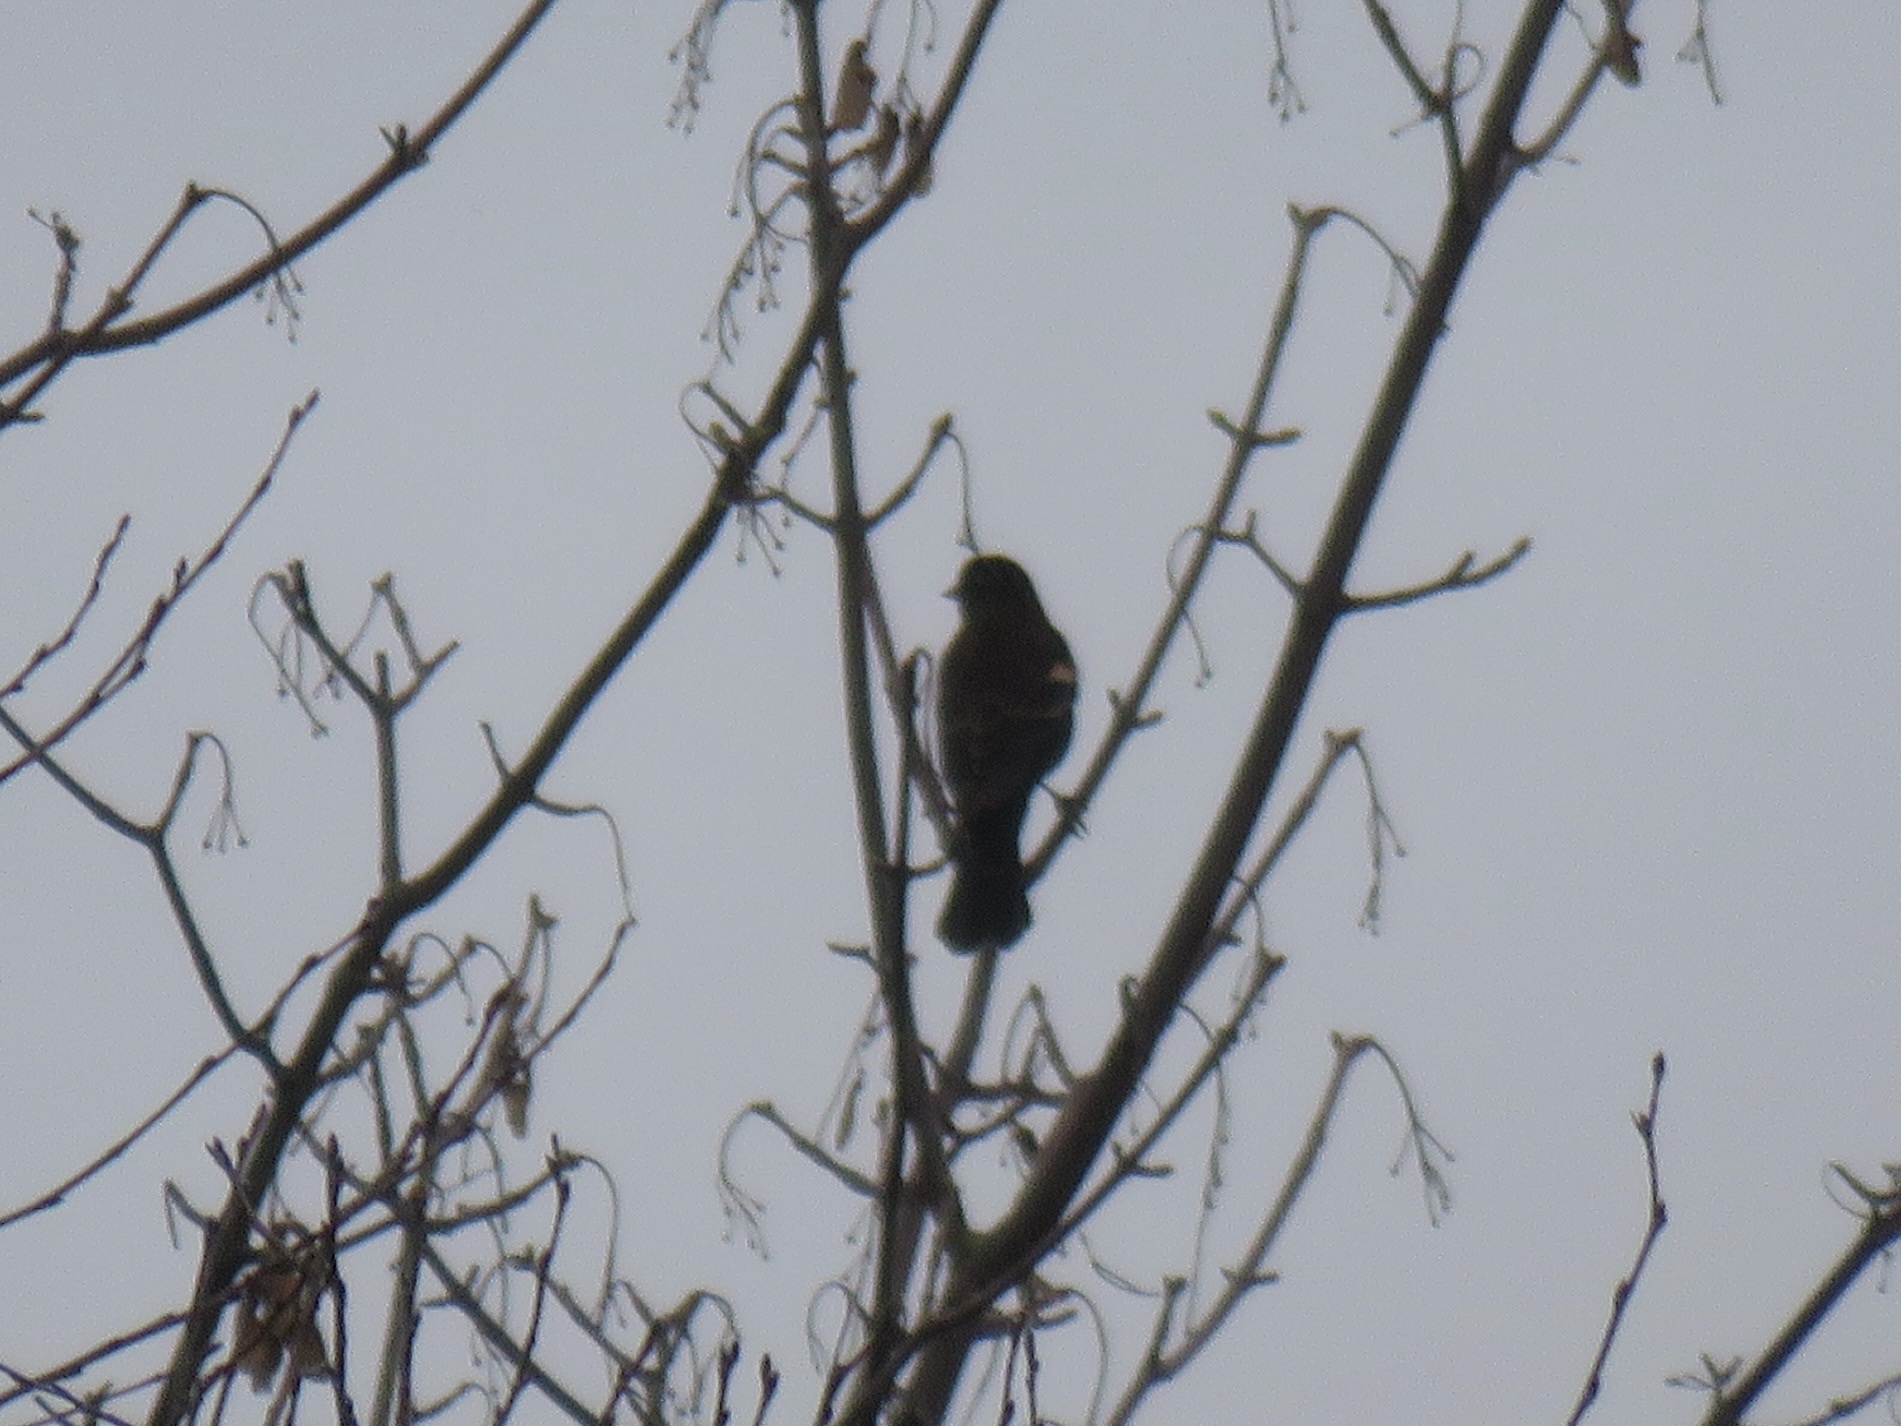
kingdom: Animalia
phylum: Chordata
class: Aves
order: Passeriformes
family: Icteridae
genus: Agelaius
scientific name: Agelaius phoeniceus
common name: Red-winged blackbird
